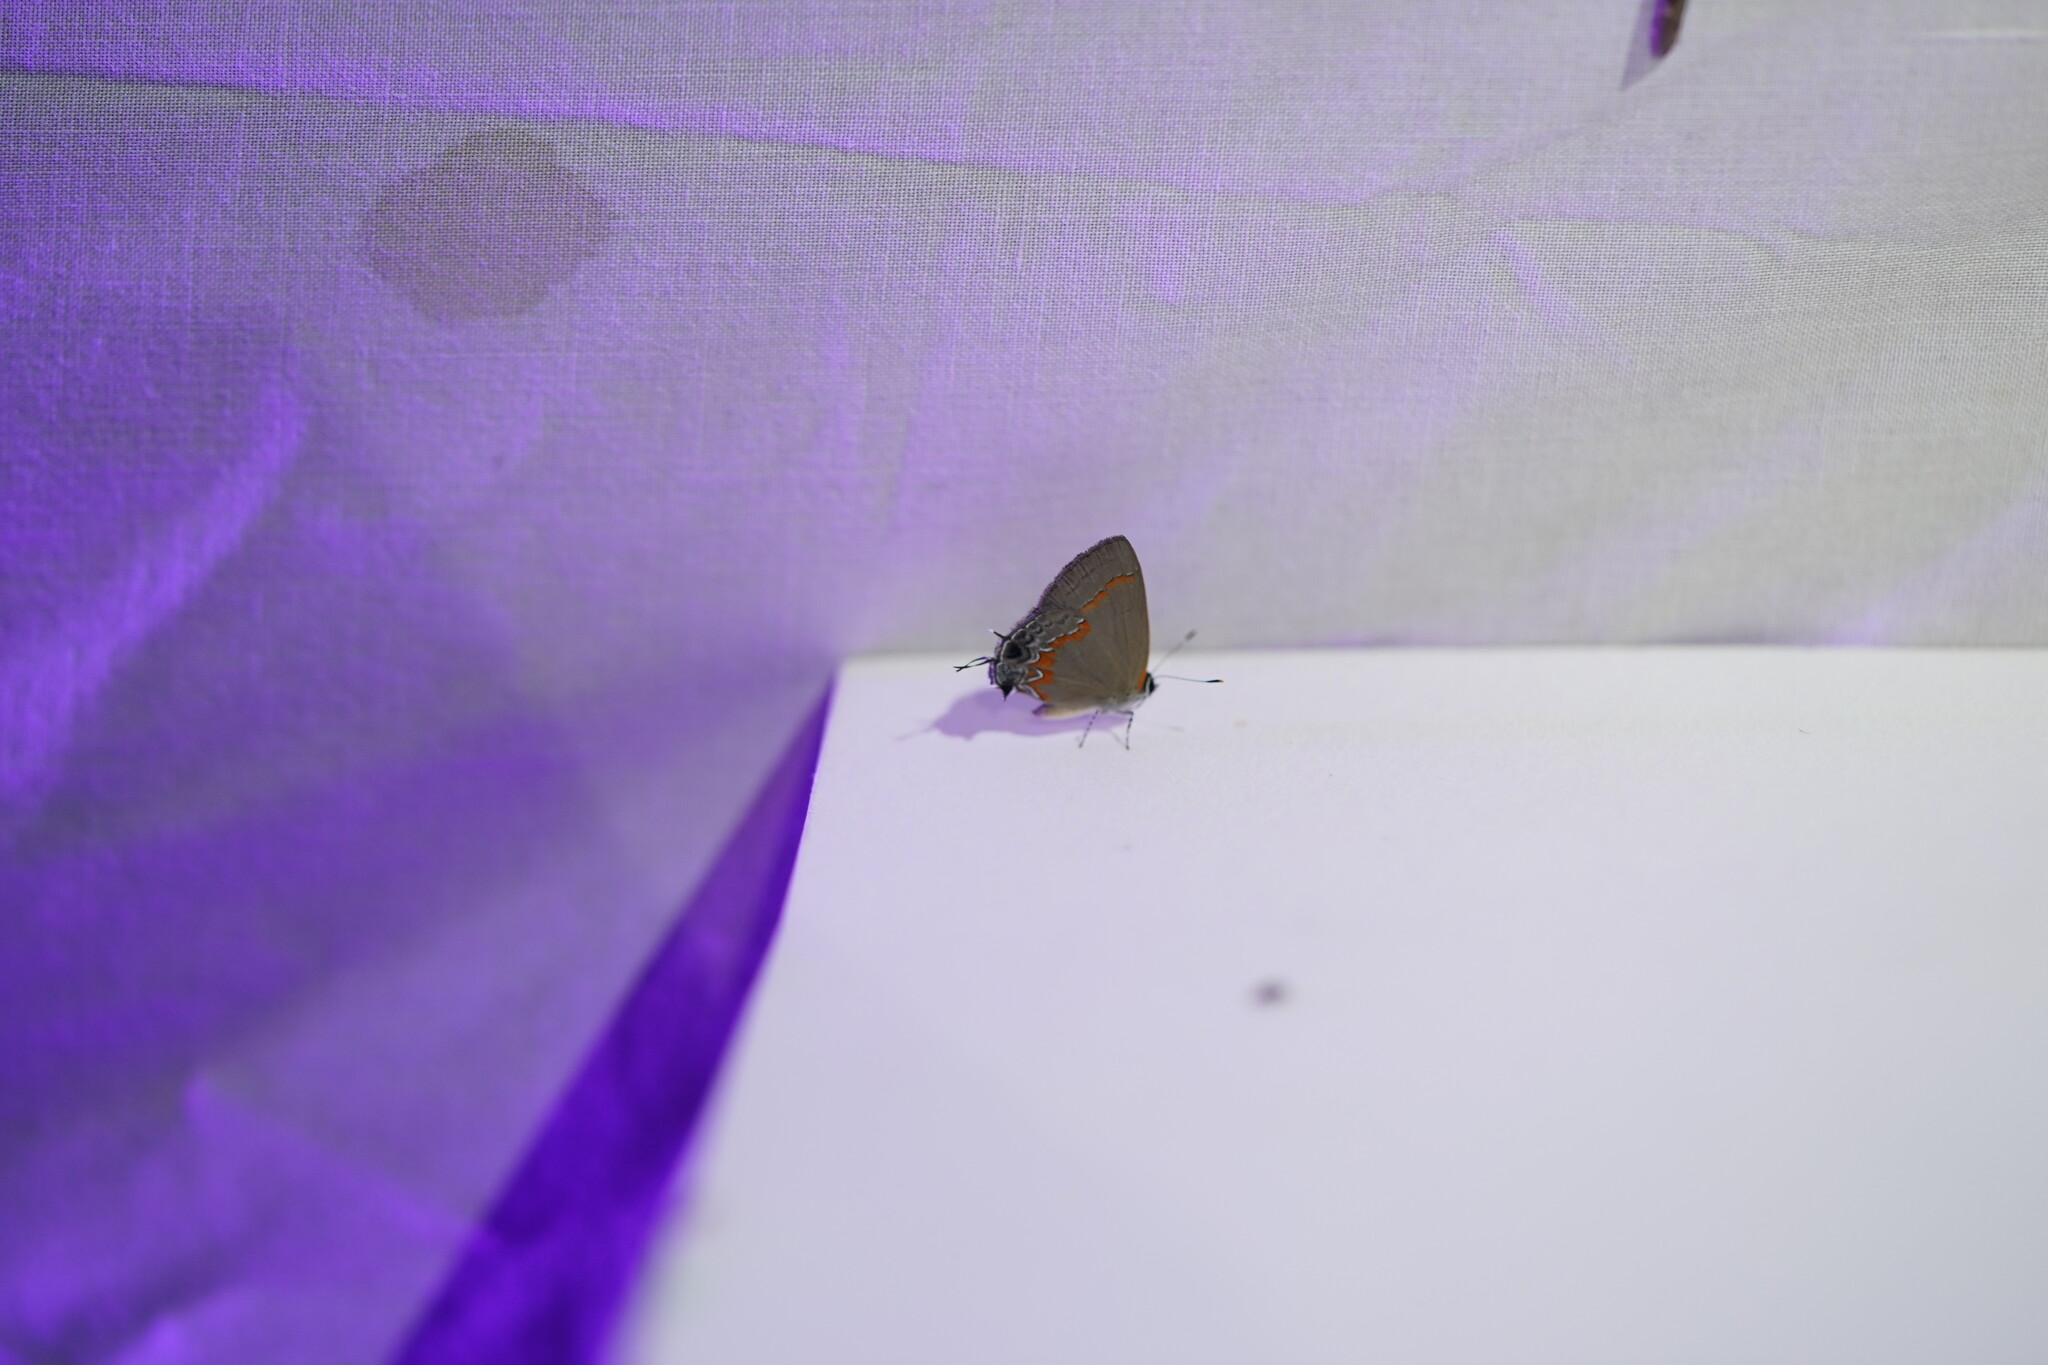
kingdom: Animalia
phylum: Arthropoda
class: Insecta
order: Lepidoptera
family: Lycaenidae
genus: Calycopis
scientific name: Calycopis cecrops
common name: Red-banded hairstreak
